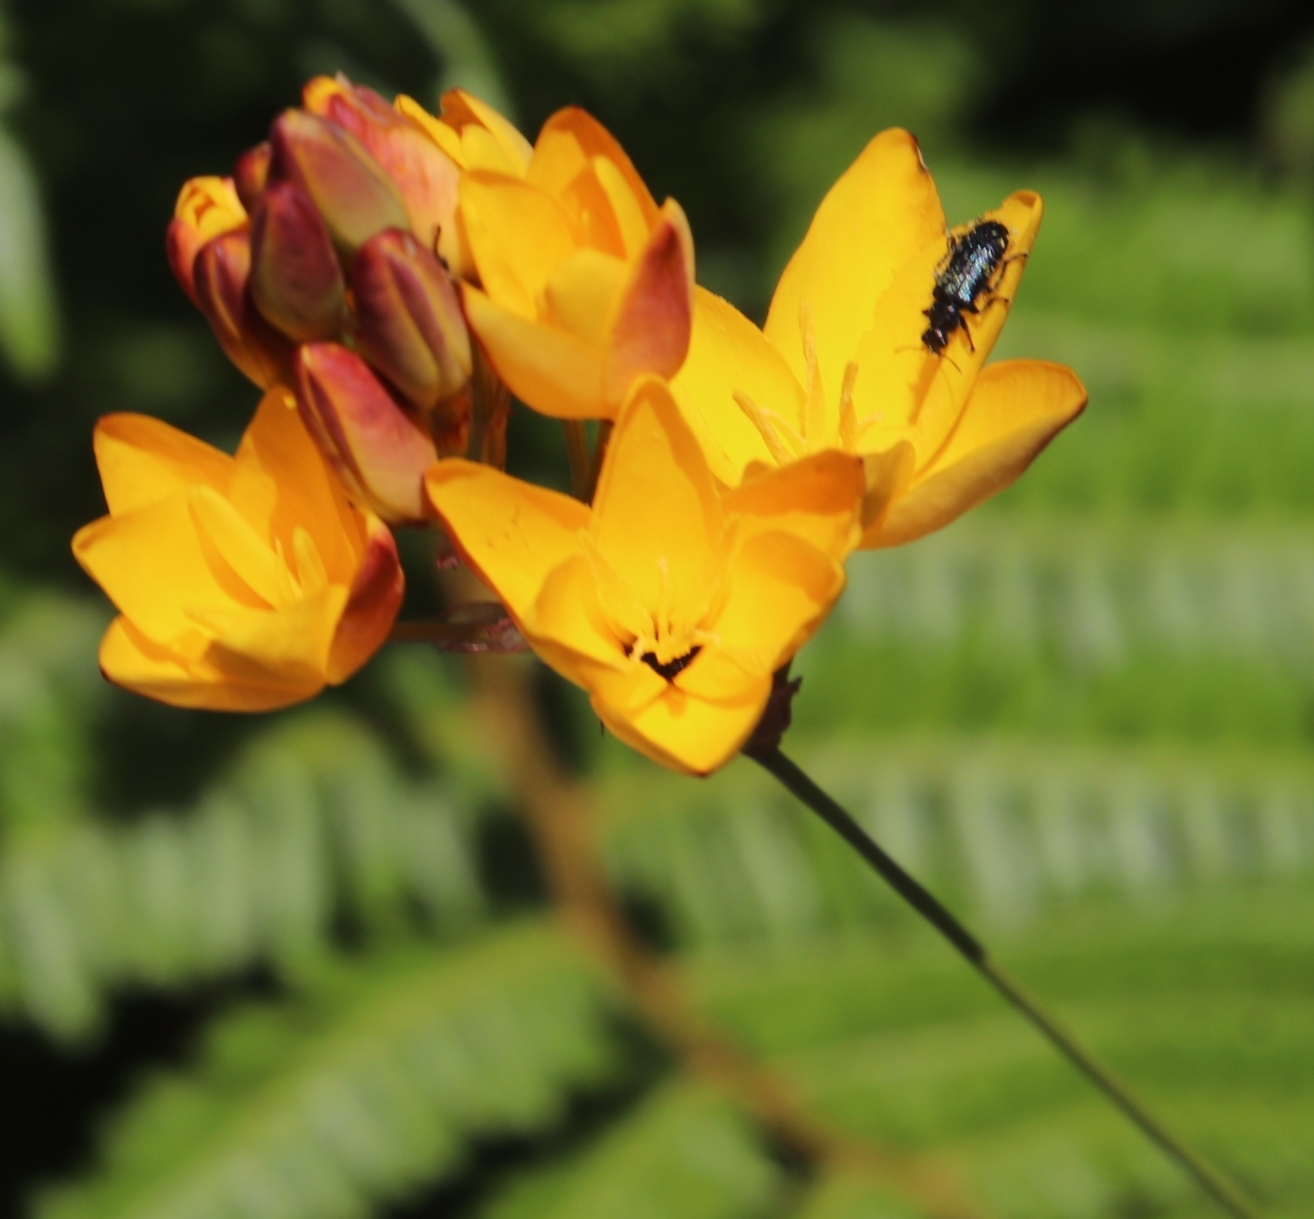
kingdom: Plantae
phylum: Tracheophyta
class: Liliopsida
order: Asparagales
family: Iridaceae
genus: Ixia
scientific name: Ixia dubia
